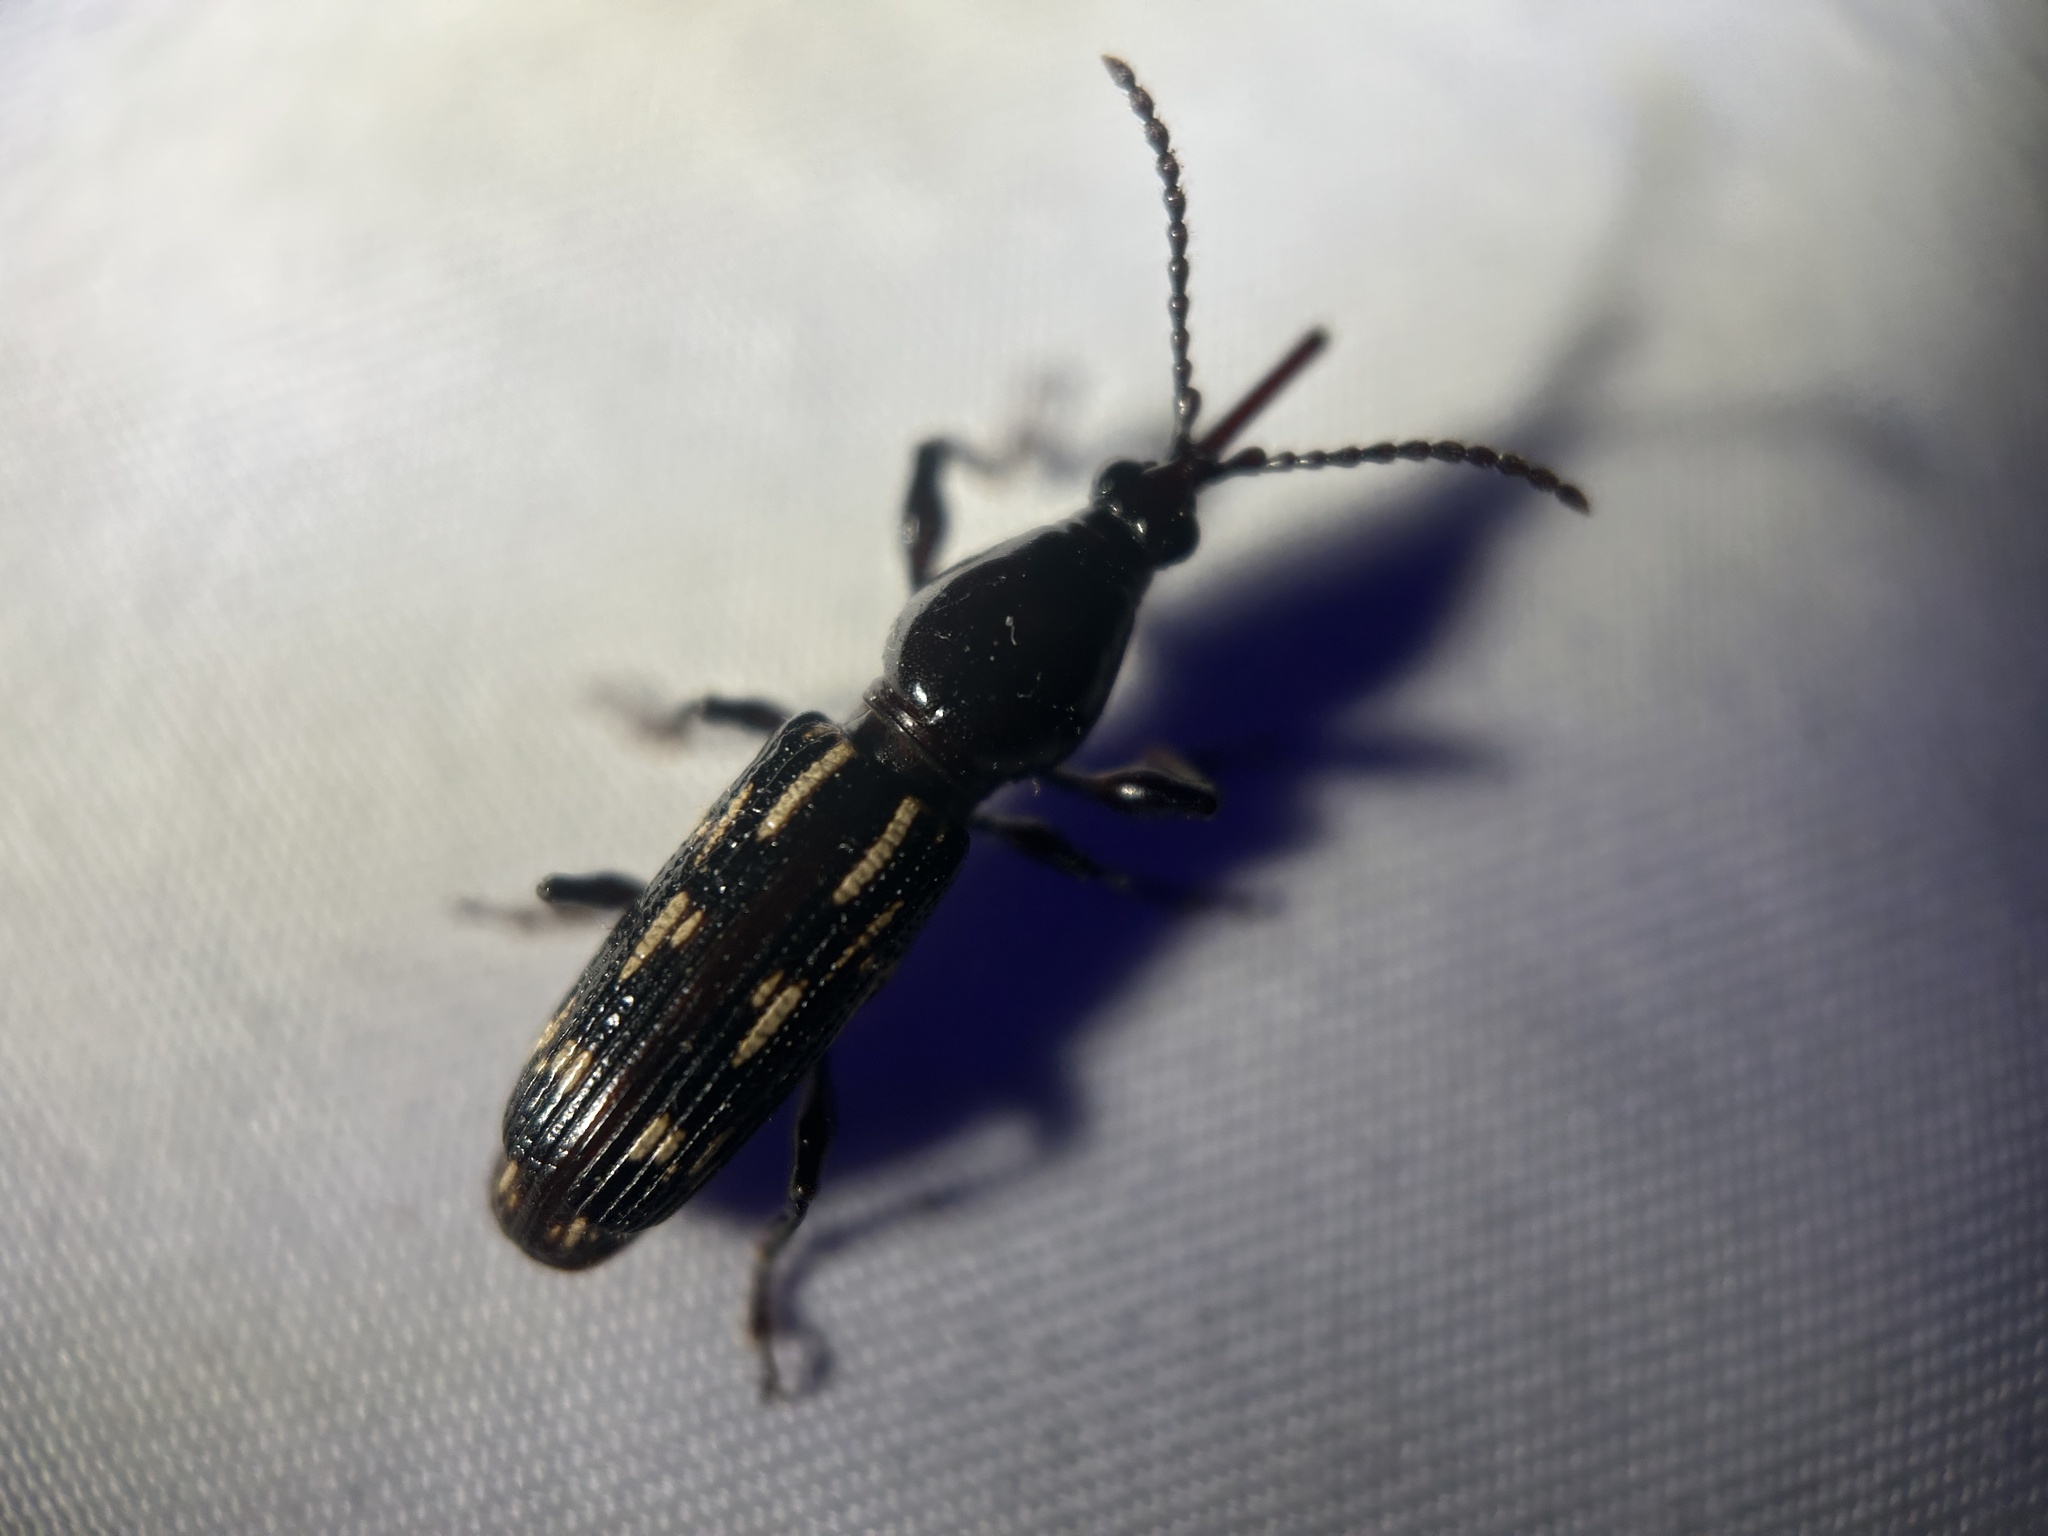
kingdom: Animalia
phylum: Arthropoda
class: Insecta
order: Coleoptera
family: Brentidae
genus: Arrenodes
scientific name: Arrenodes minutus
